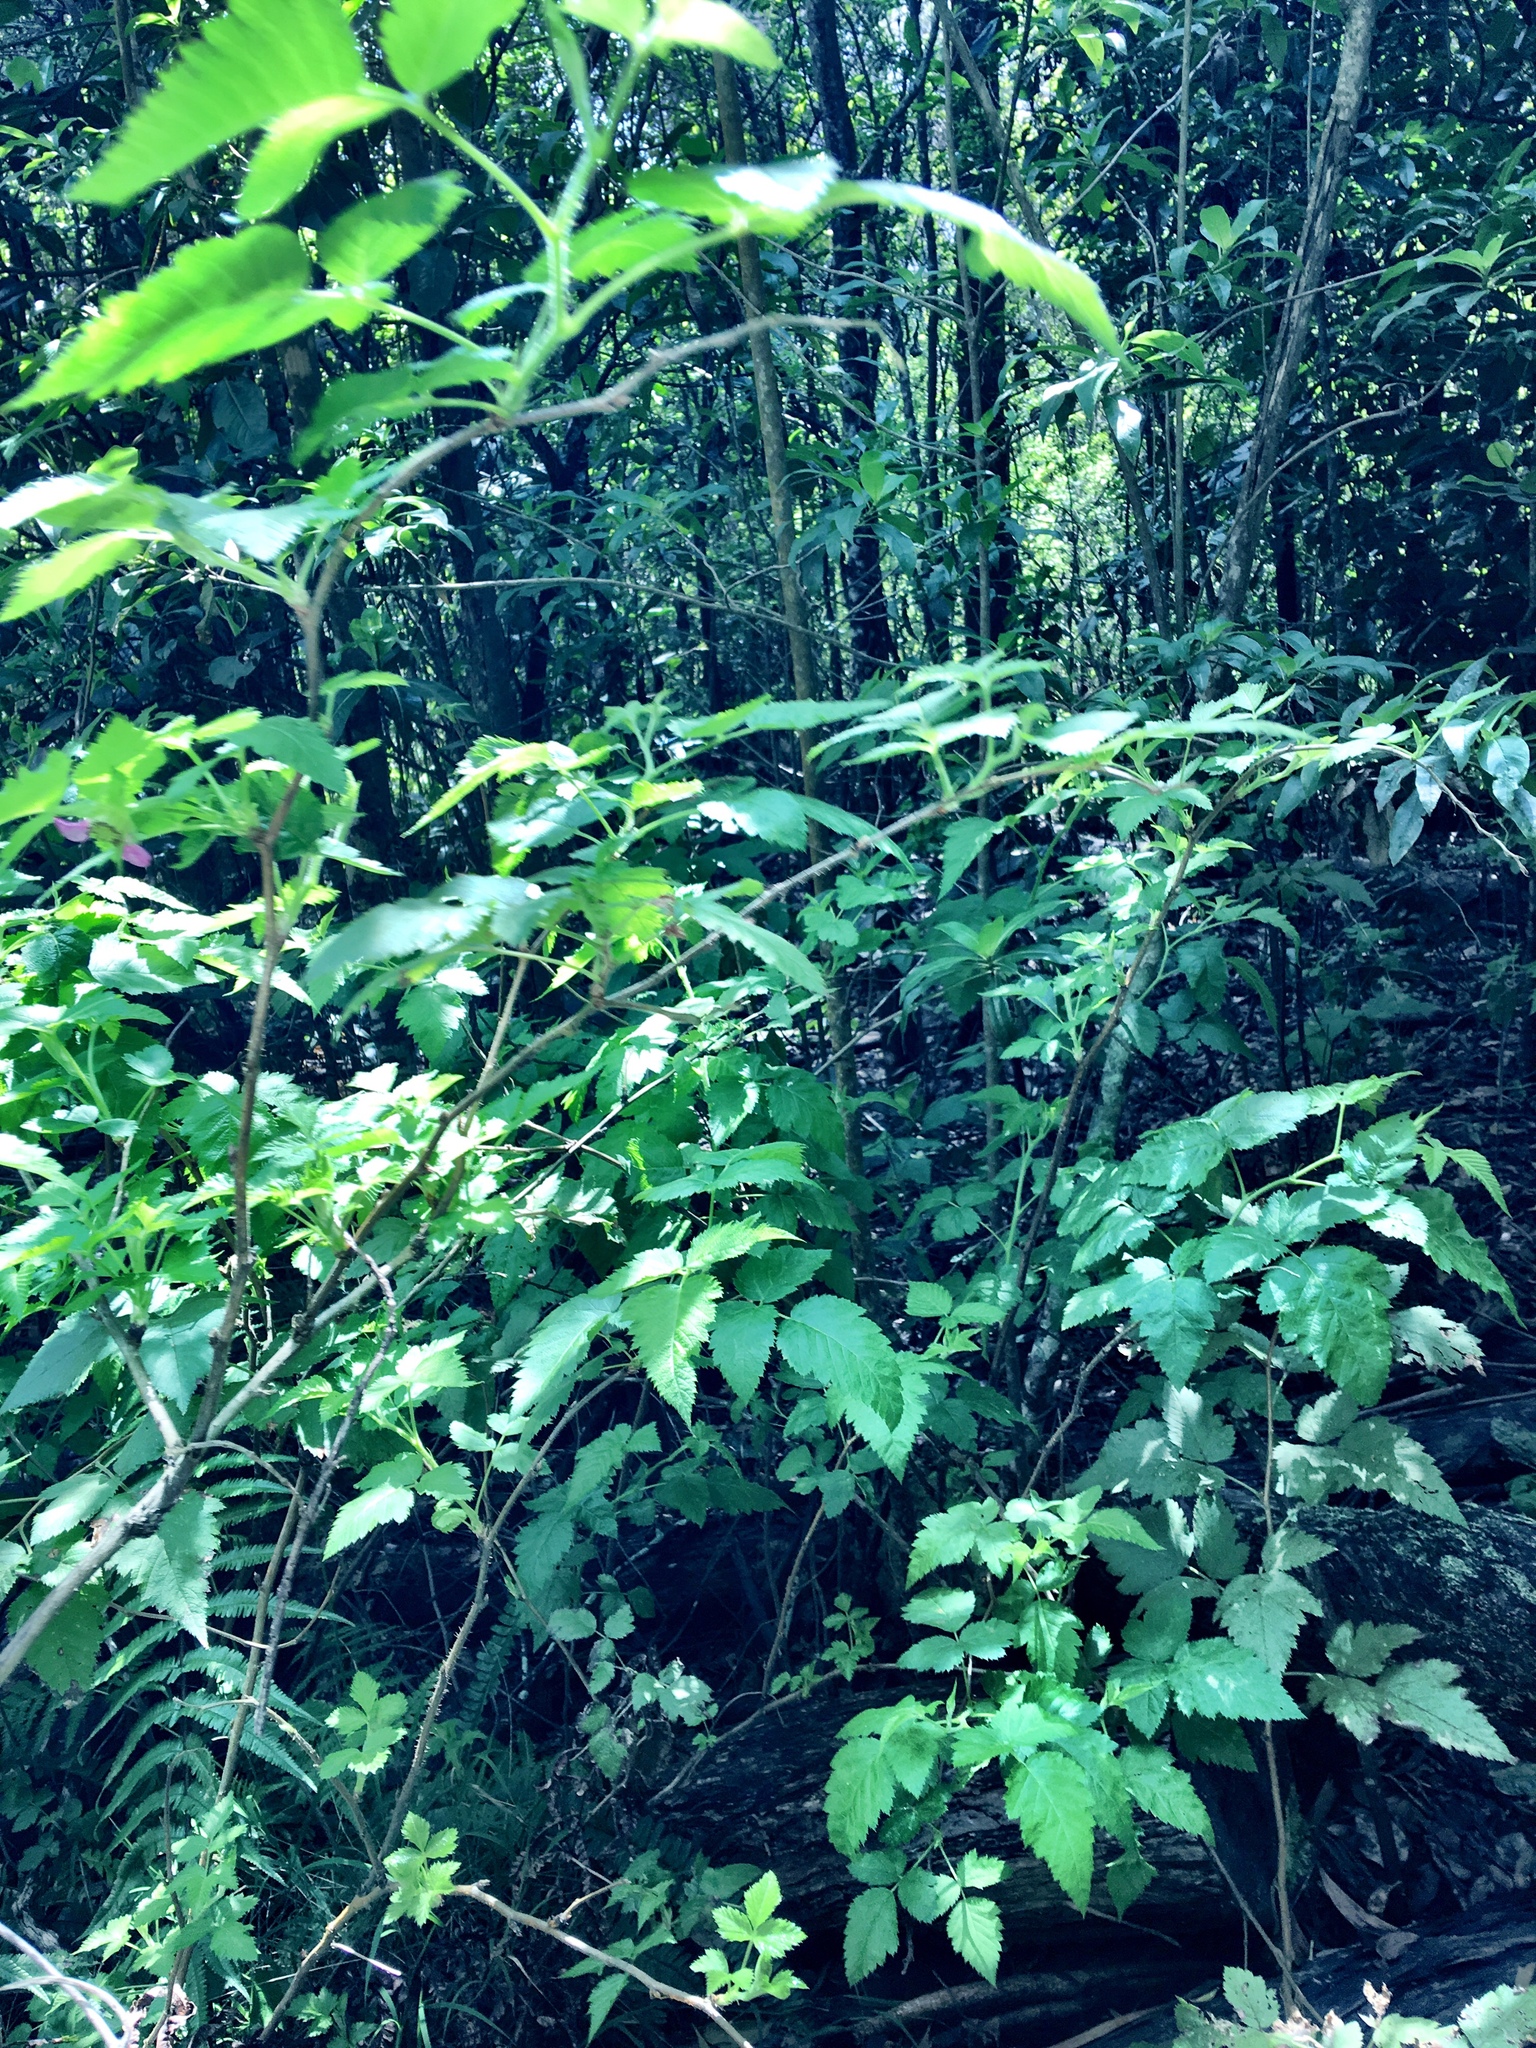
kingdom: Plantae
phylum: Tracheophyta
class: Magnoliopsida
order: Rosales
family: Rosaceae
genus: Rubus
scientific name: Rubus hawaiensis
